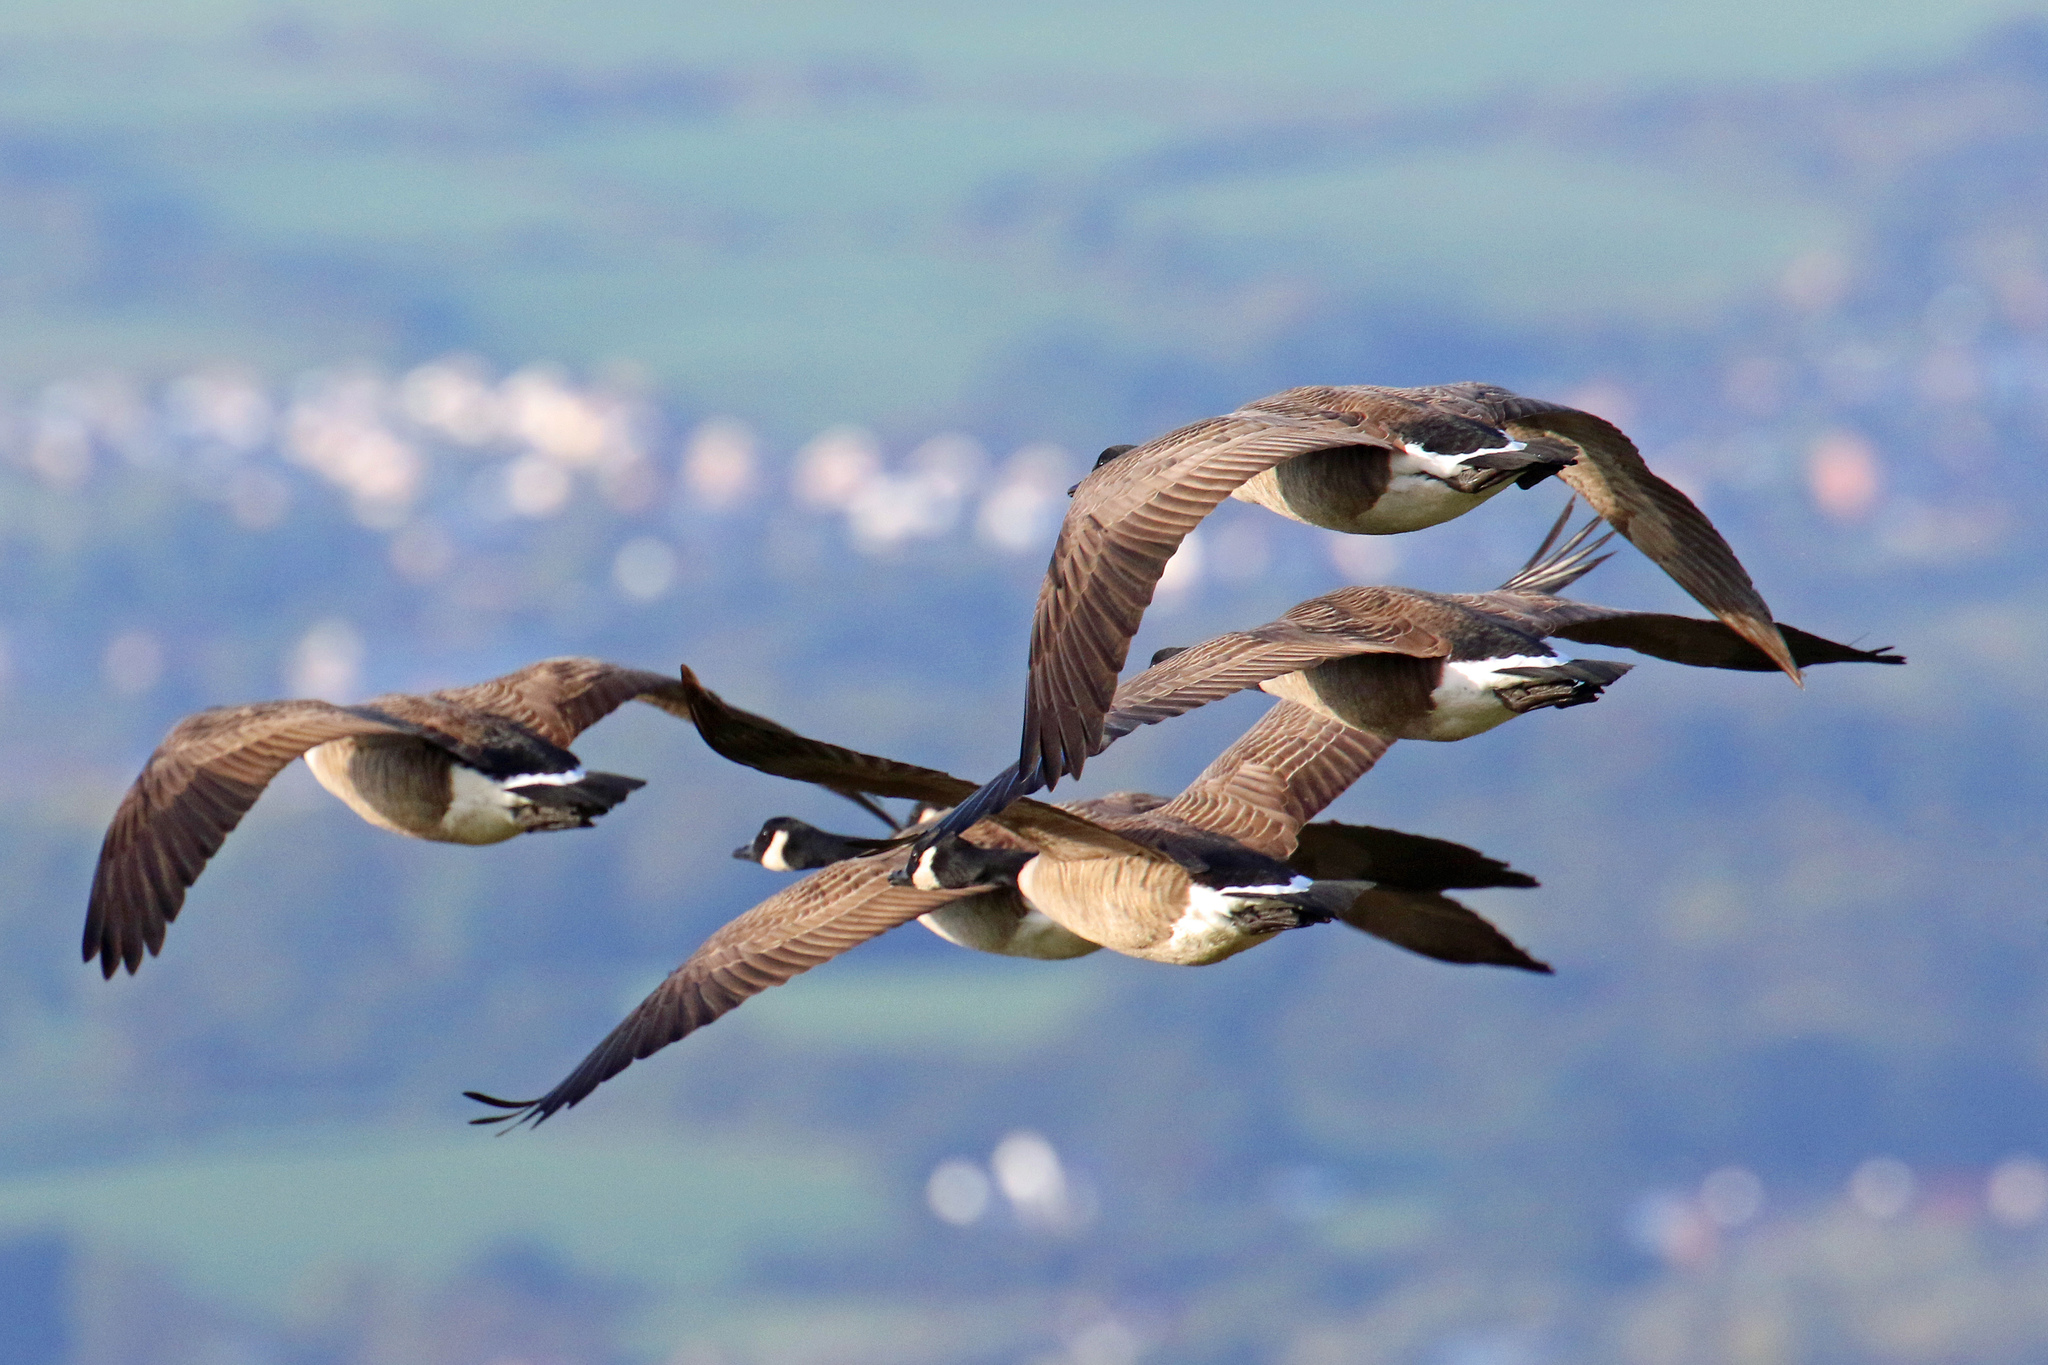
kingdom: Animalia
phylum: Chordata
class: Aves
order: Anseriformes
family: Anatidae
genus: Branta
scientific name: Branta canadensis
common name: Canada goose
